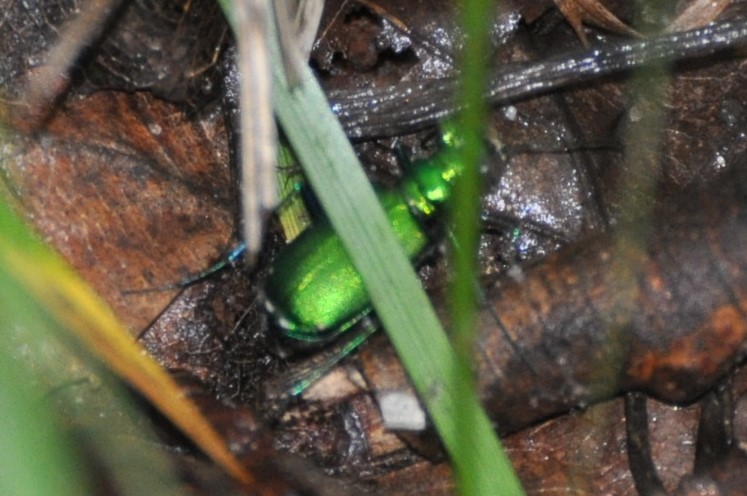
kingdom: Animalia
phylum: Arthropoda
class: Insecta
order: Coleoptera
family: Carabidae
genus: Cicindela
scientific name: Cicindela sexguttata
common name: Six-spotted tiger beetle
